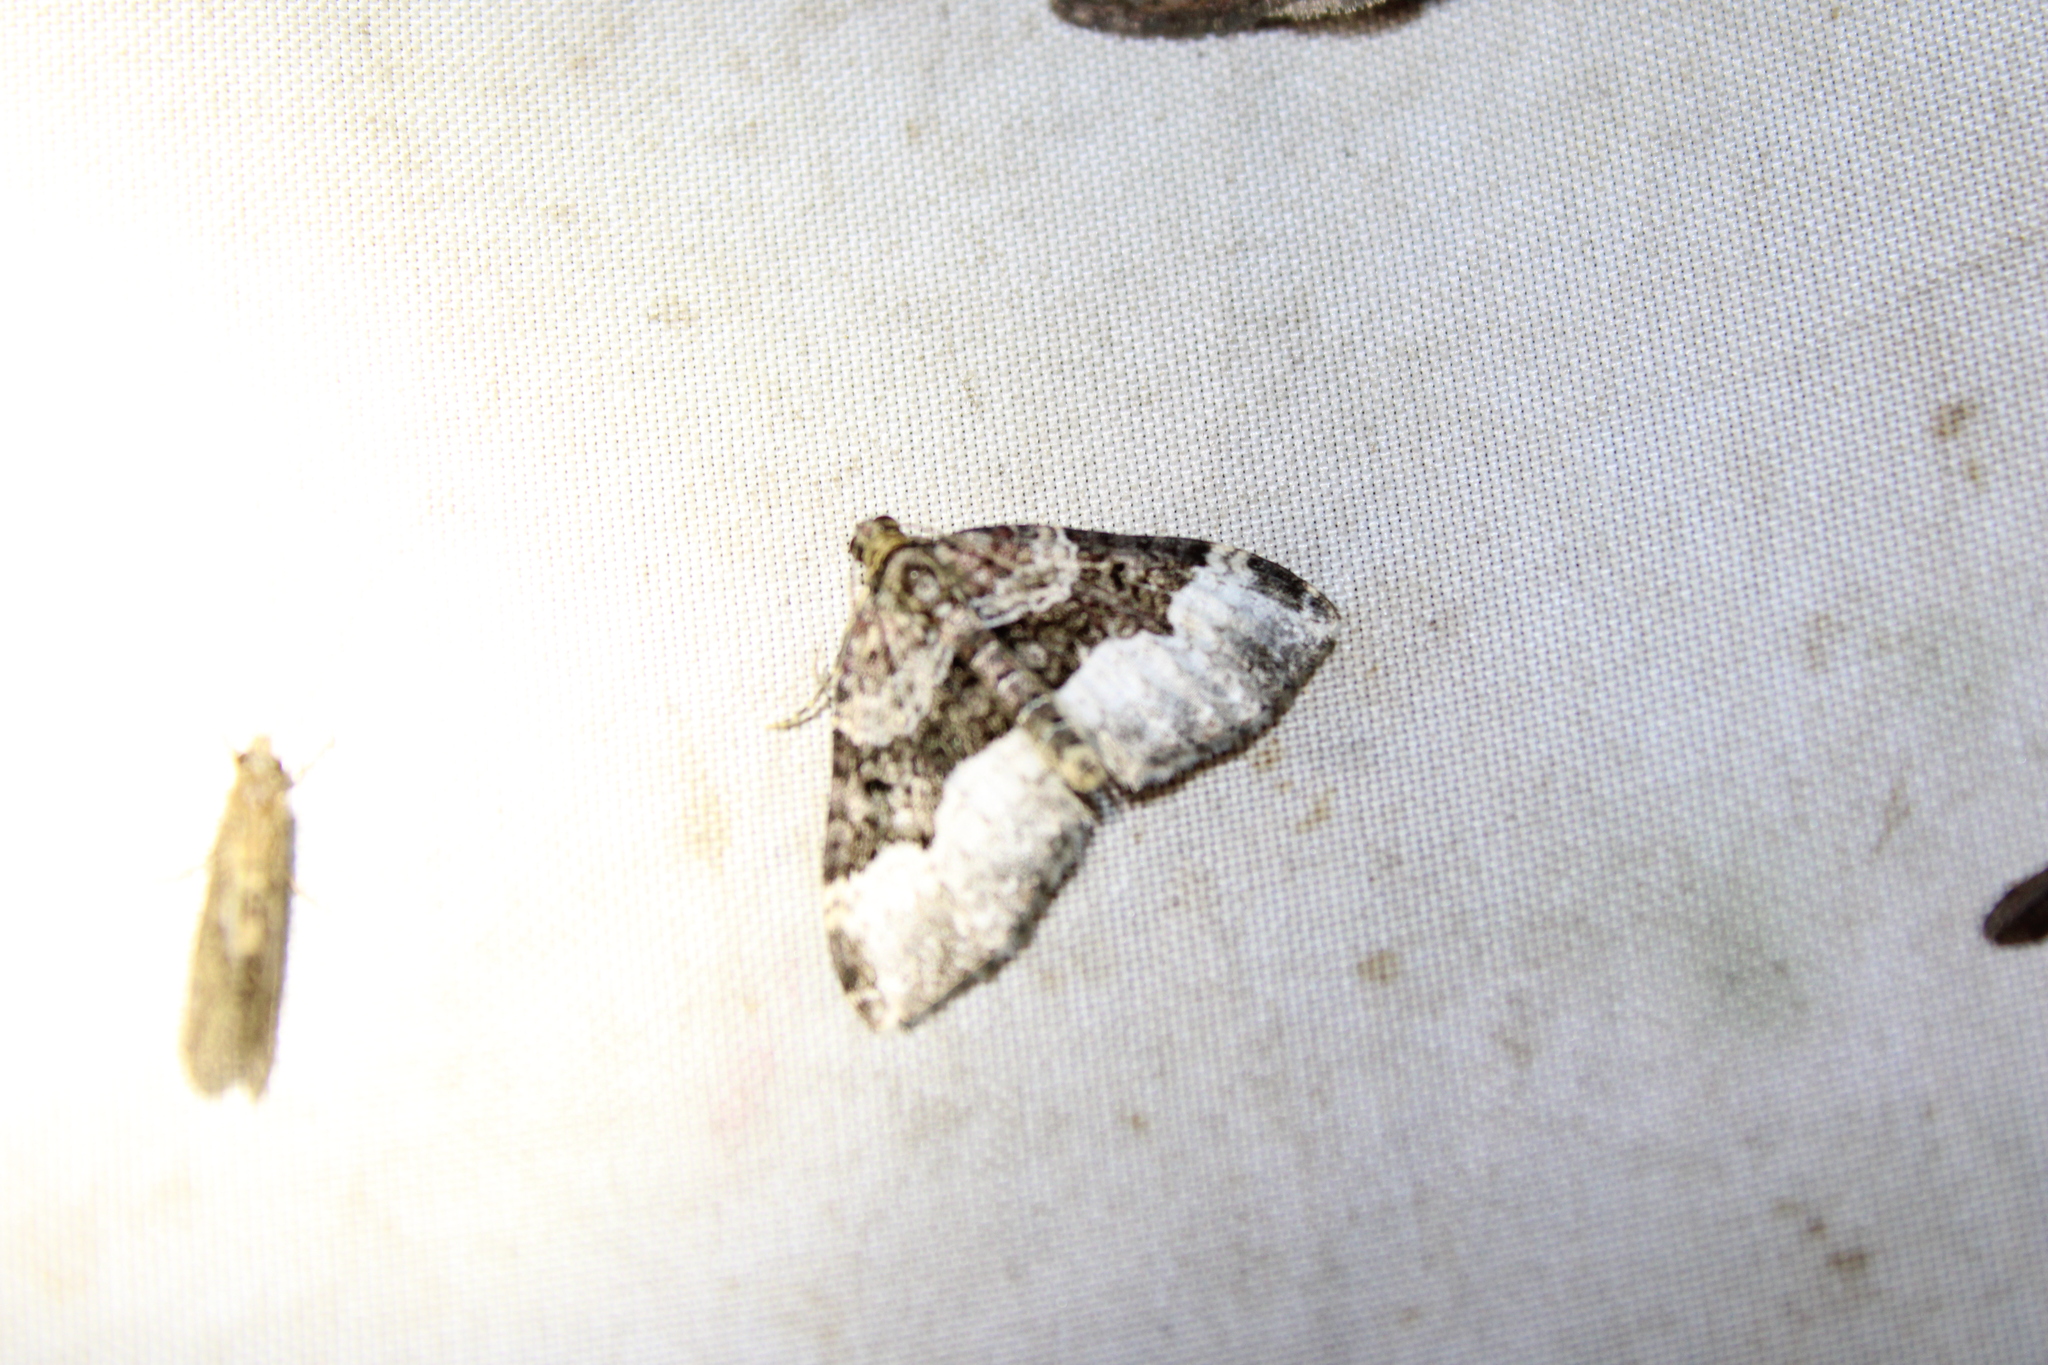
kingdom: Animalia
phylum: Arthropoda
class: Insecta
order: Lepidoptera
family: Geometridae
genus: Euphyia
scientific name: Euphyia intermediata
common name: Sharp-angled carpet
